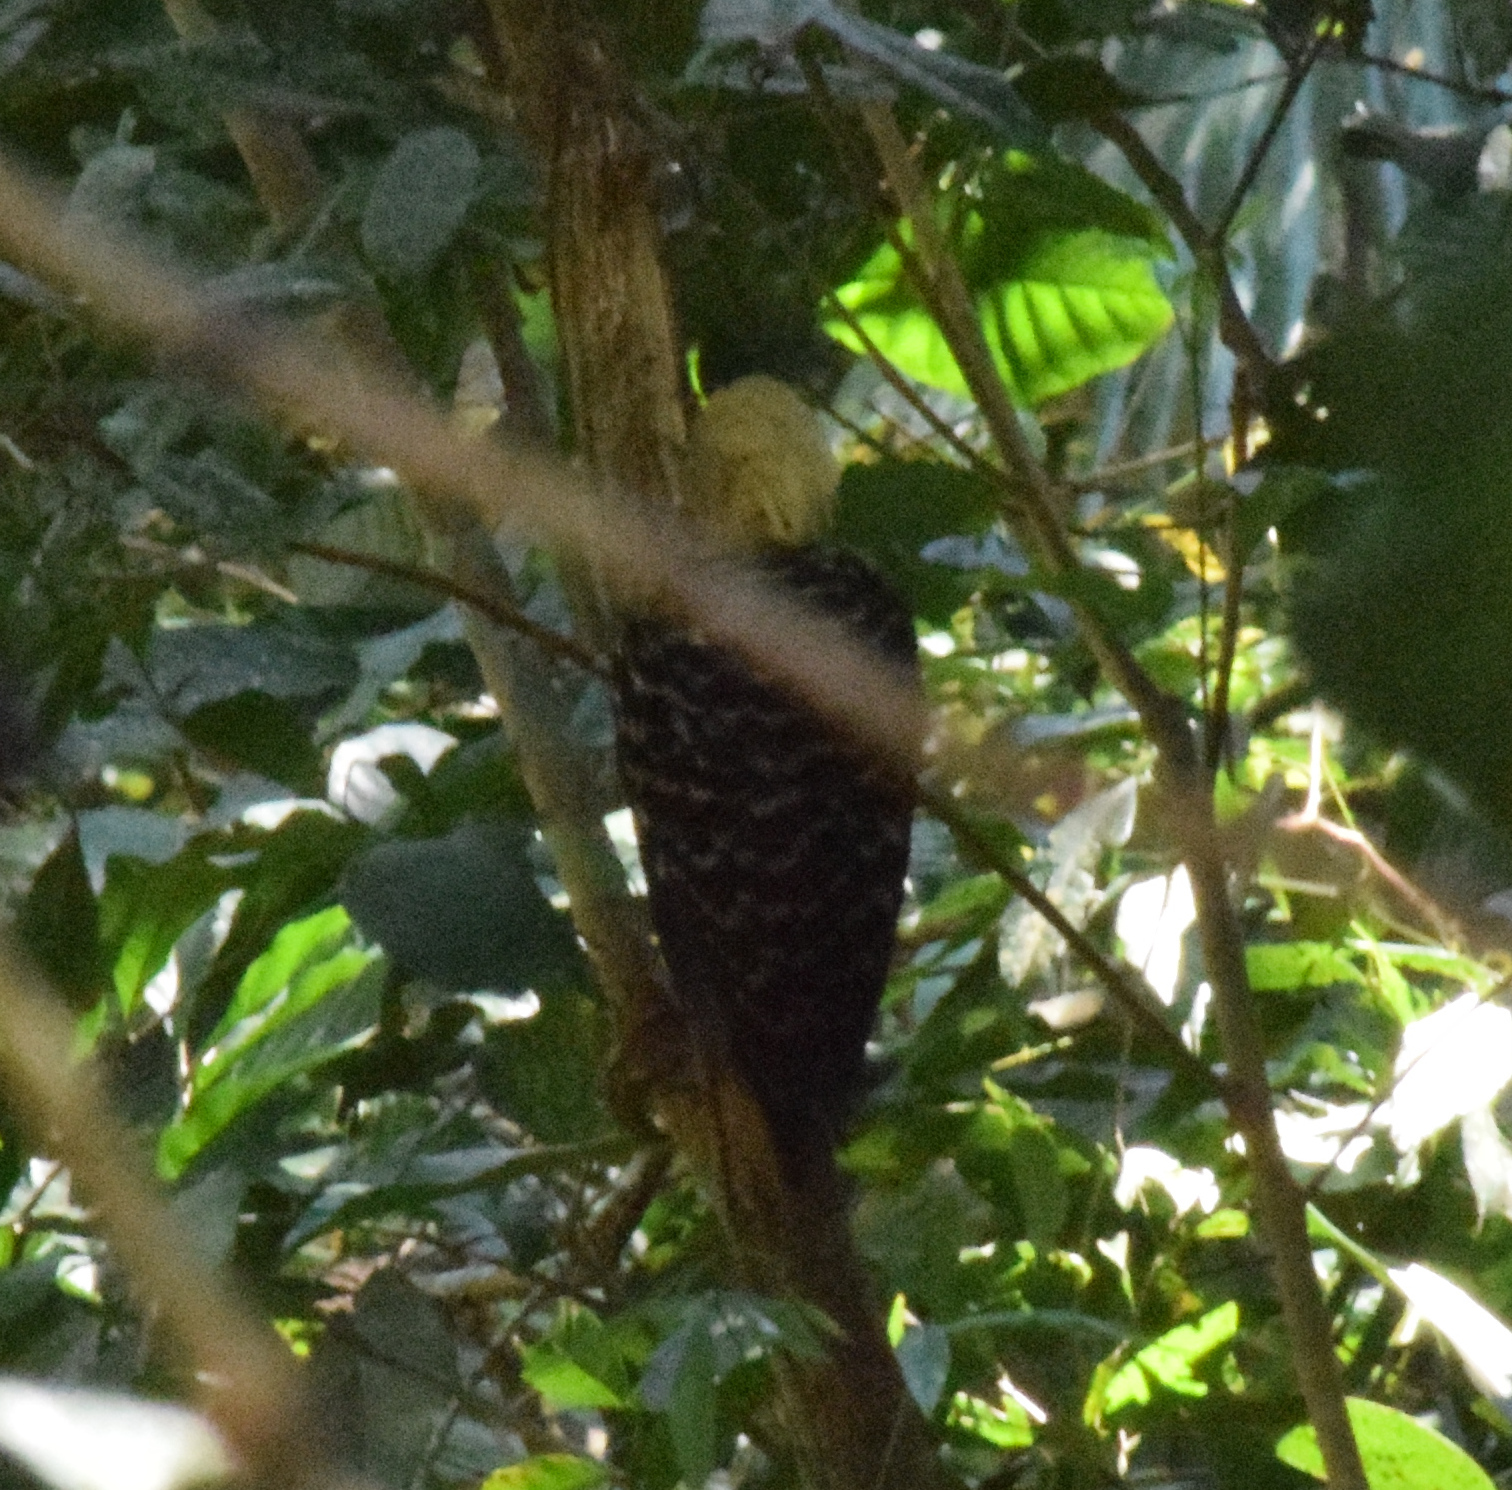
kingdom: Animalia
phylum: Chordata
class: Aves
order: Piciformes
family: Picidae
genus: Celeus
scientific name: Celeus flavescens
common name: Blond-crested woodpecker
